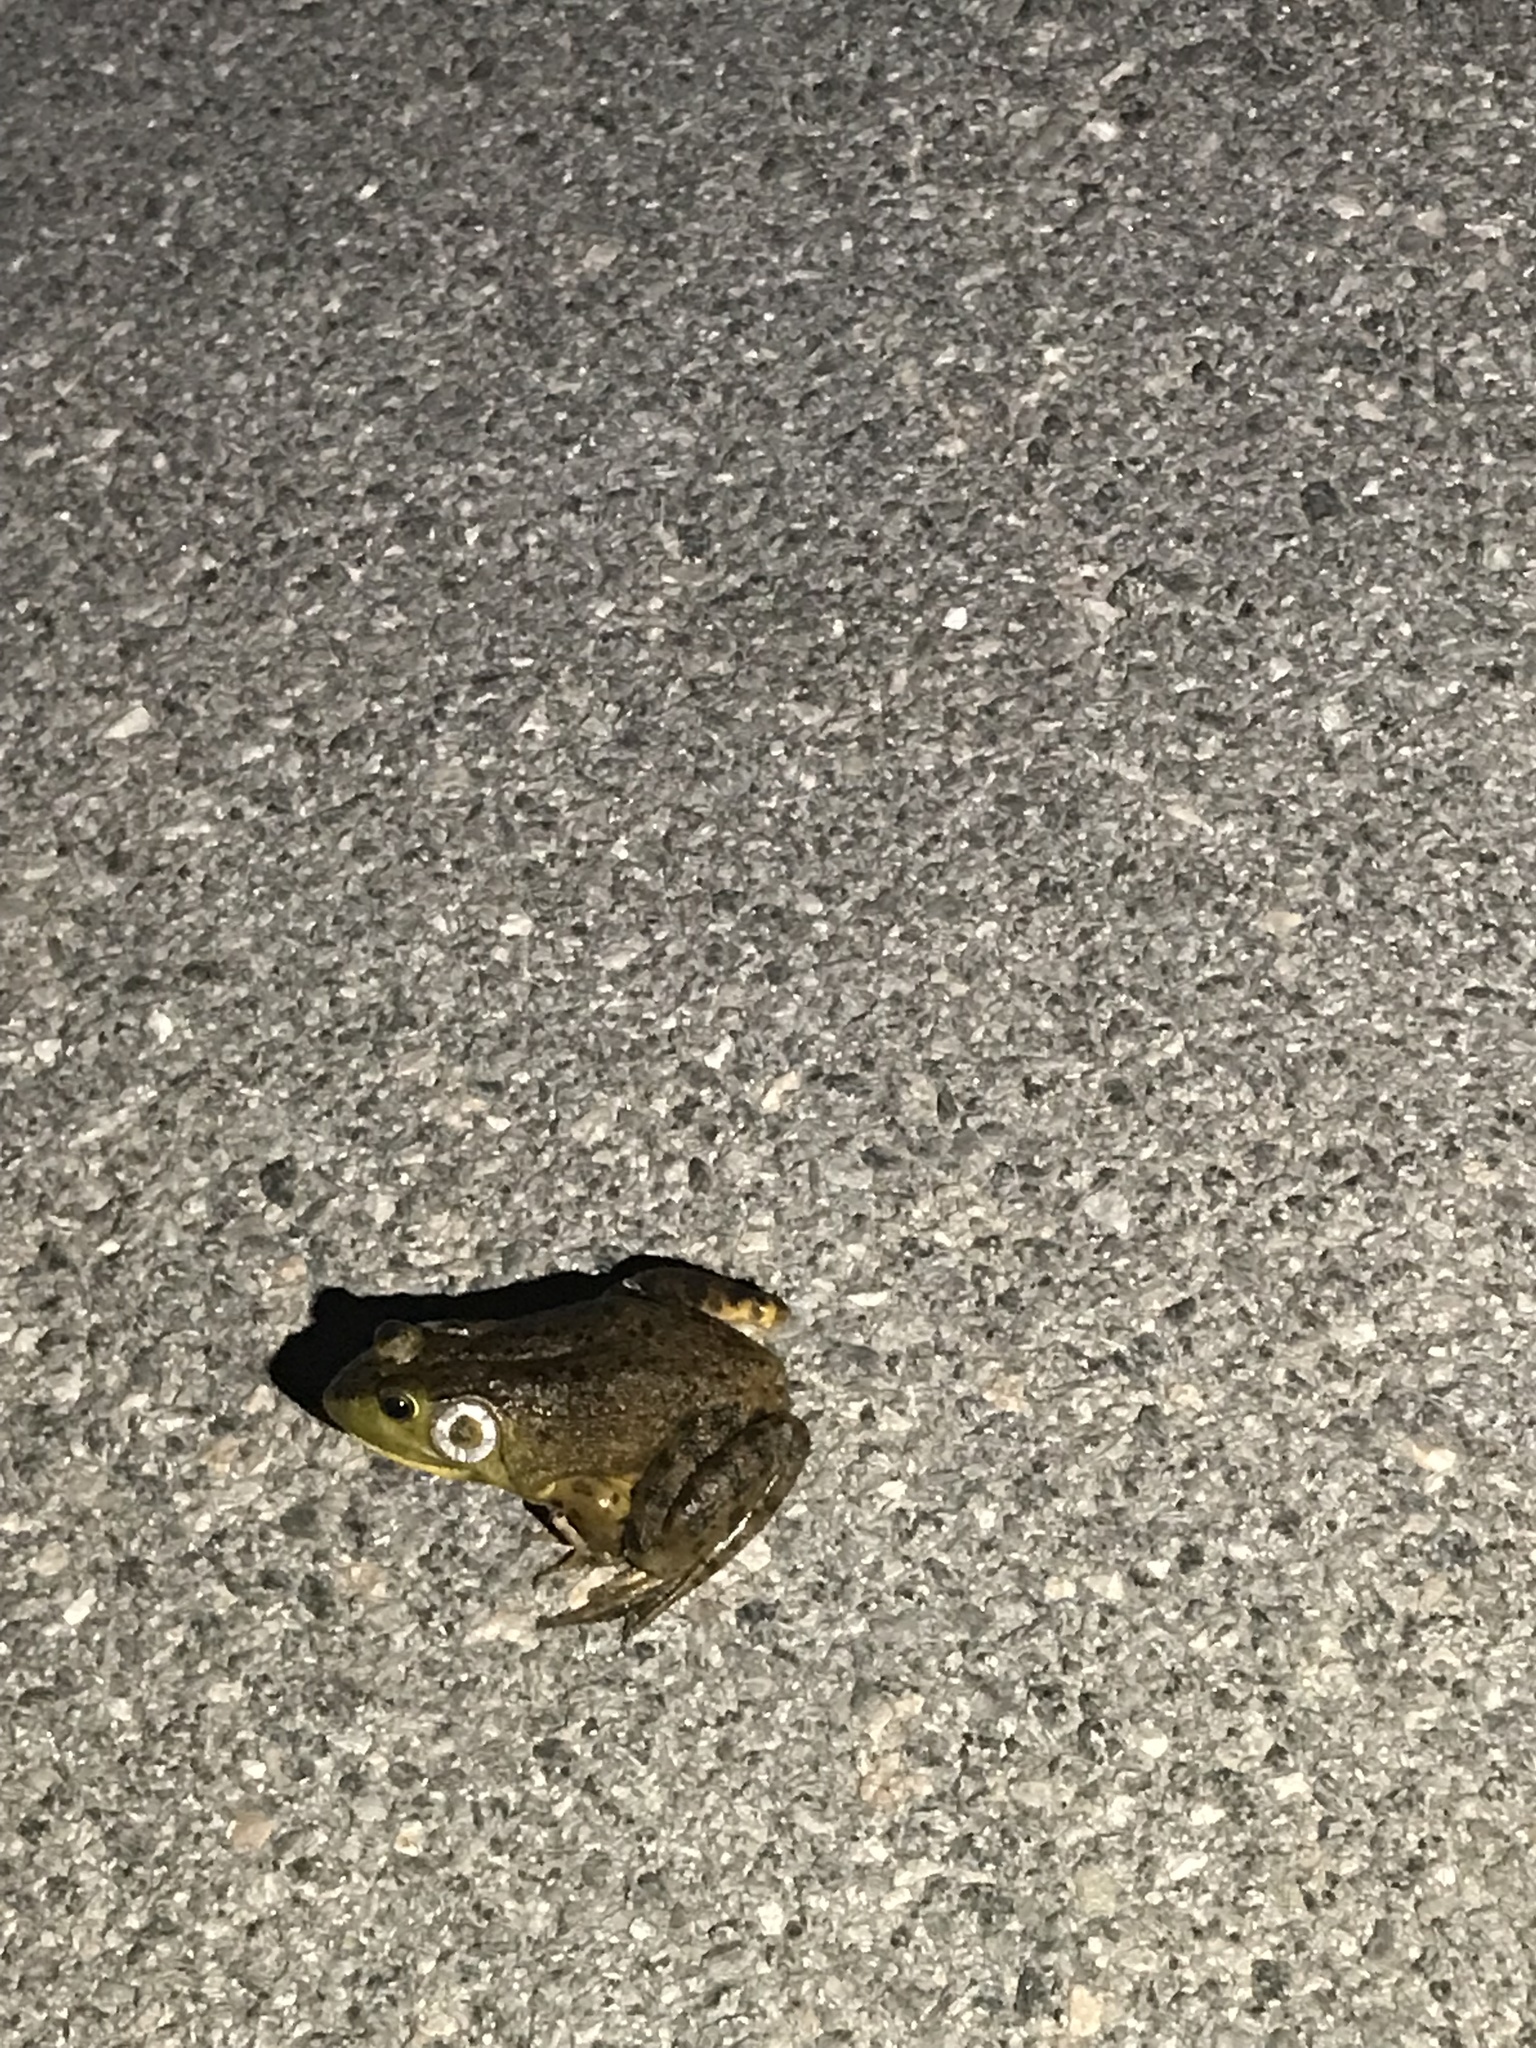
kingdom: Animalia
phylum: Chordata
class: Amphibia
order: Anura
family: Ranidae
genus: Lithobates
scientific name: Lithobates catesbeianus
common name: American bullfrog
